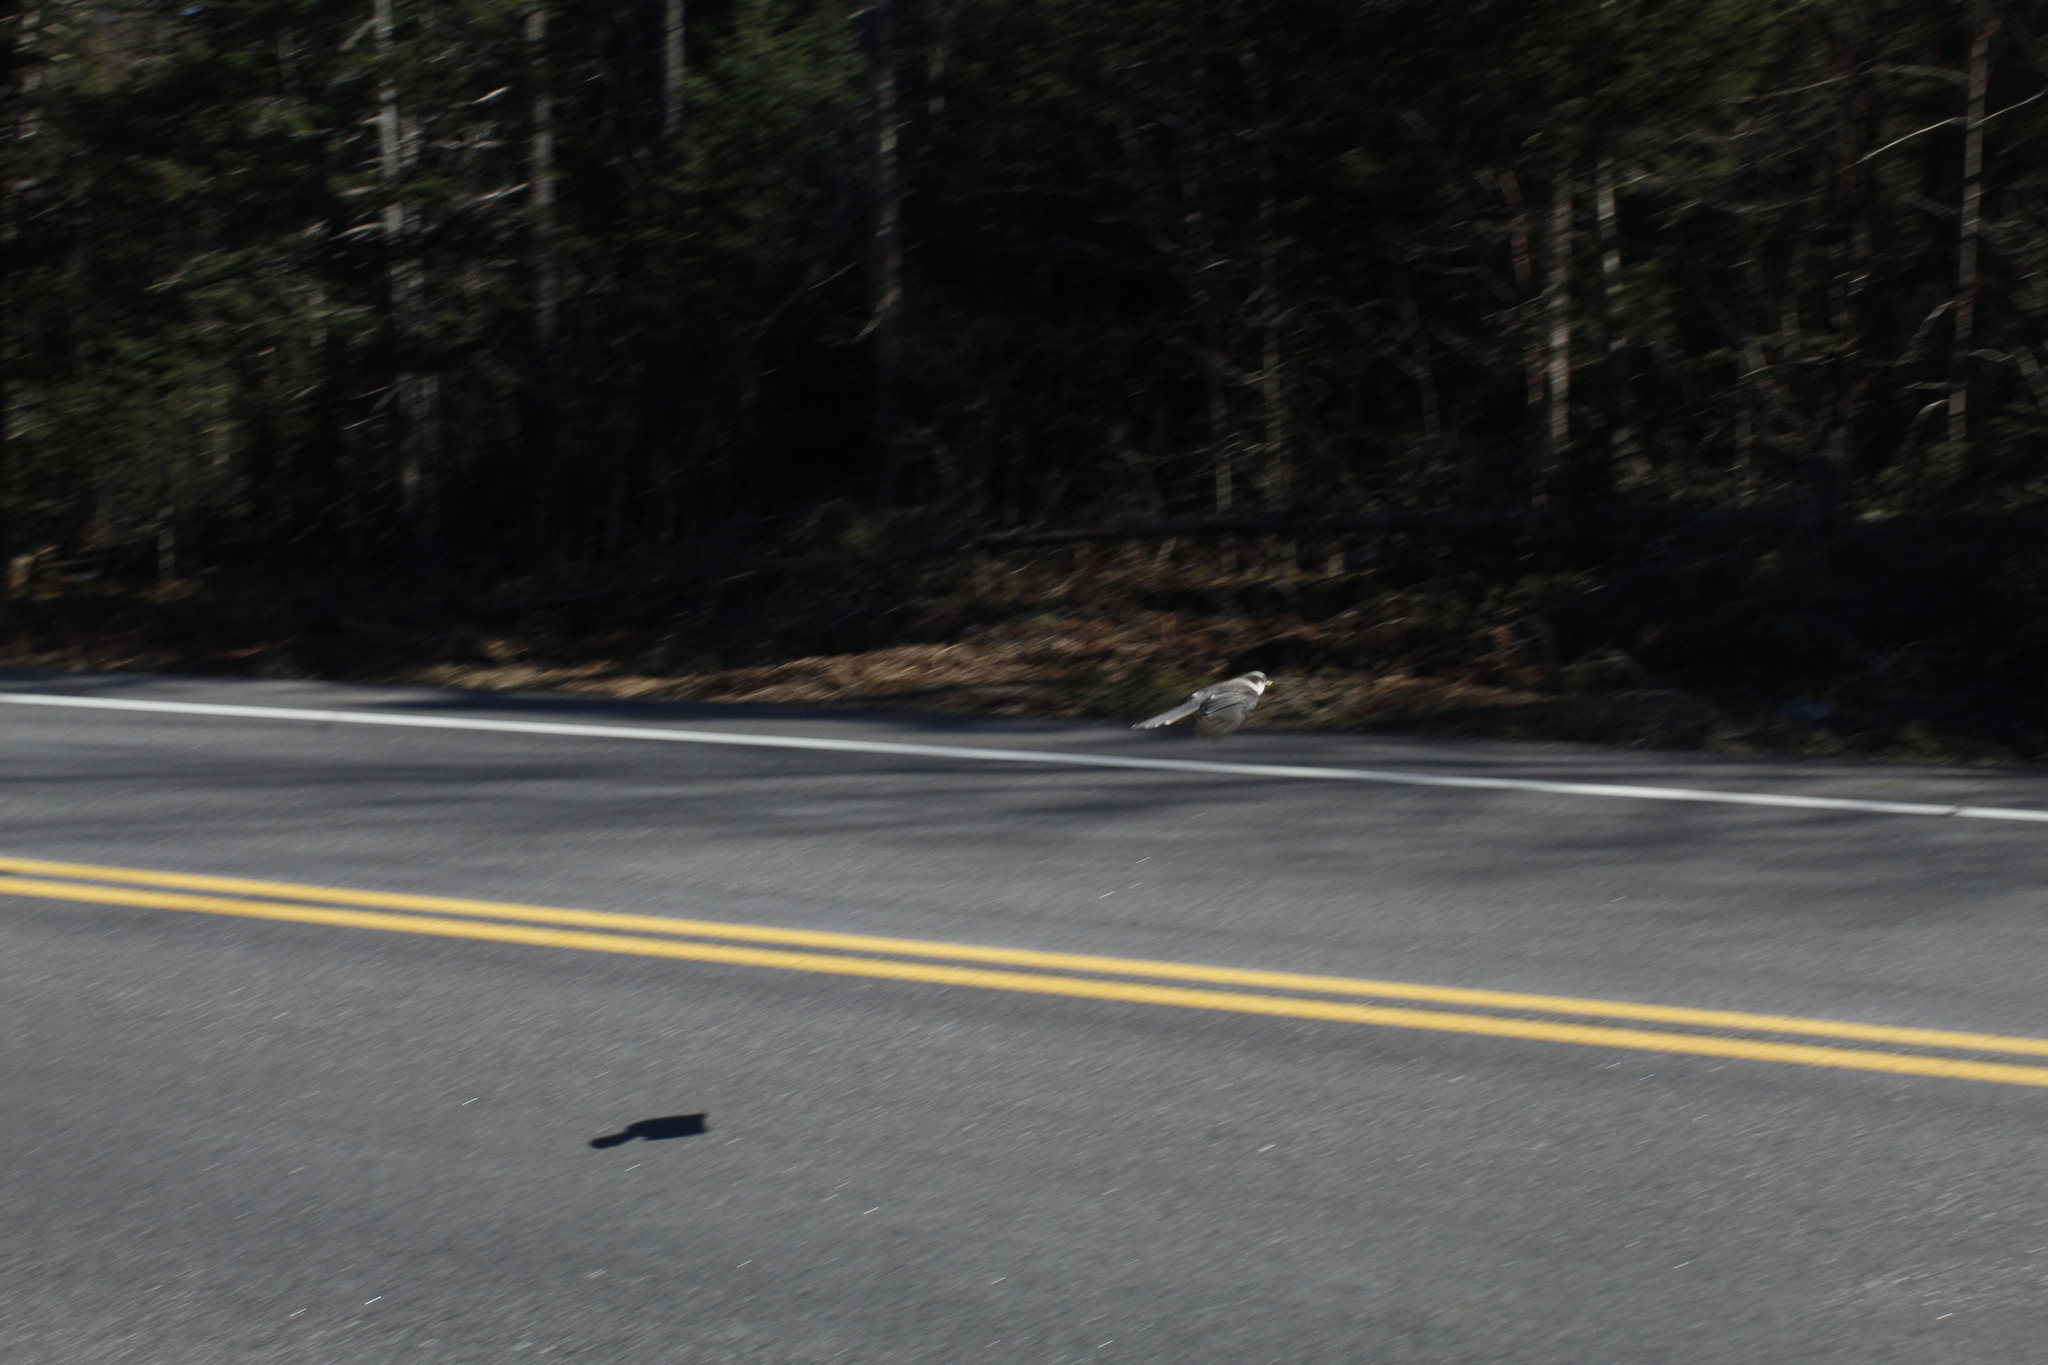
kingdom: Animalia
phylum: Chordata
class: Aves
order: Passeriformes
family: Corvidae
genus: Perisoreus
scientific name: Perisoreus canadensis
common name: Gray jay
